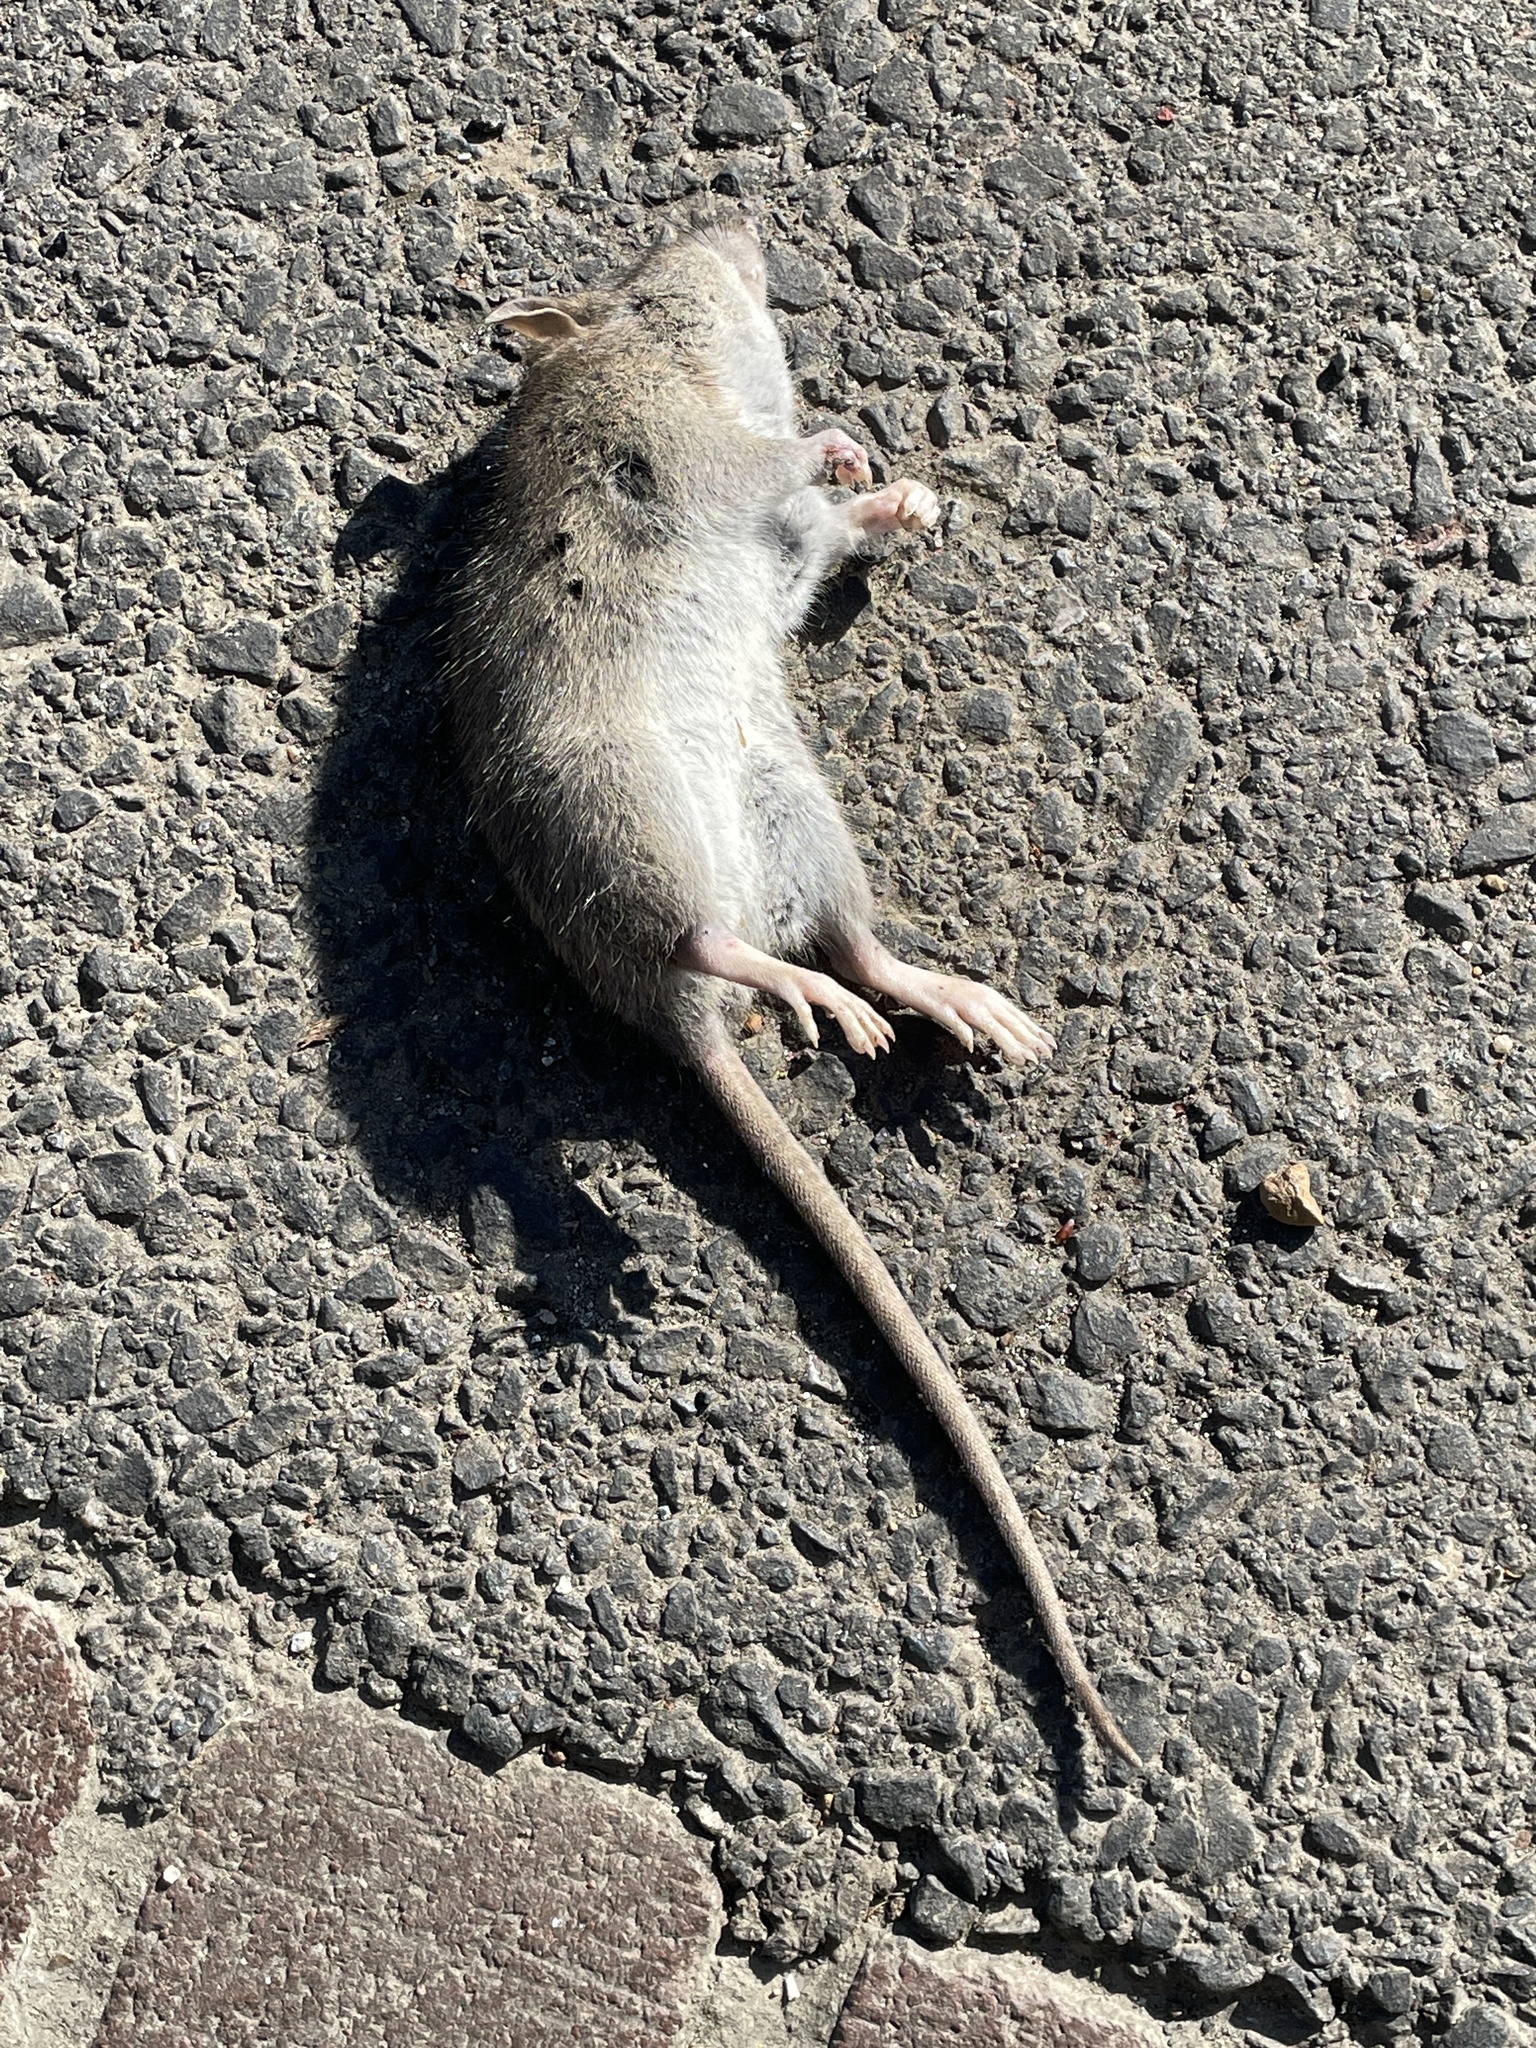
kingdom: Animalia
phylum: Chordata
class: Mammalia
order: Rodentia
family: Muridae
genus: Rattus
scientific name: Rattus norvegicus
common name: Brown rat
